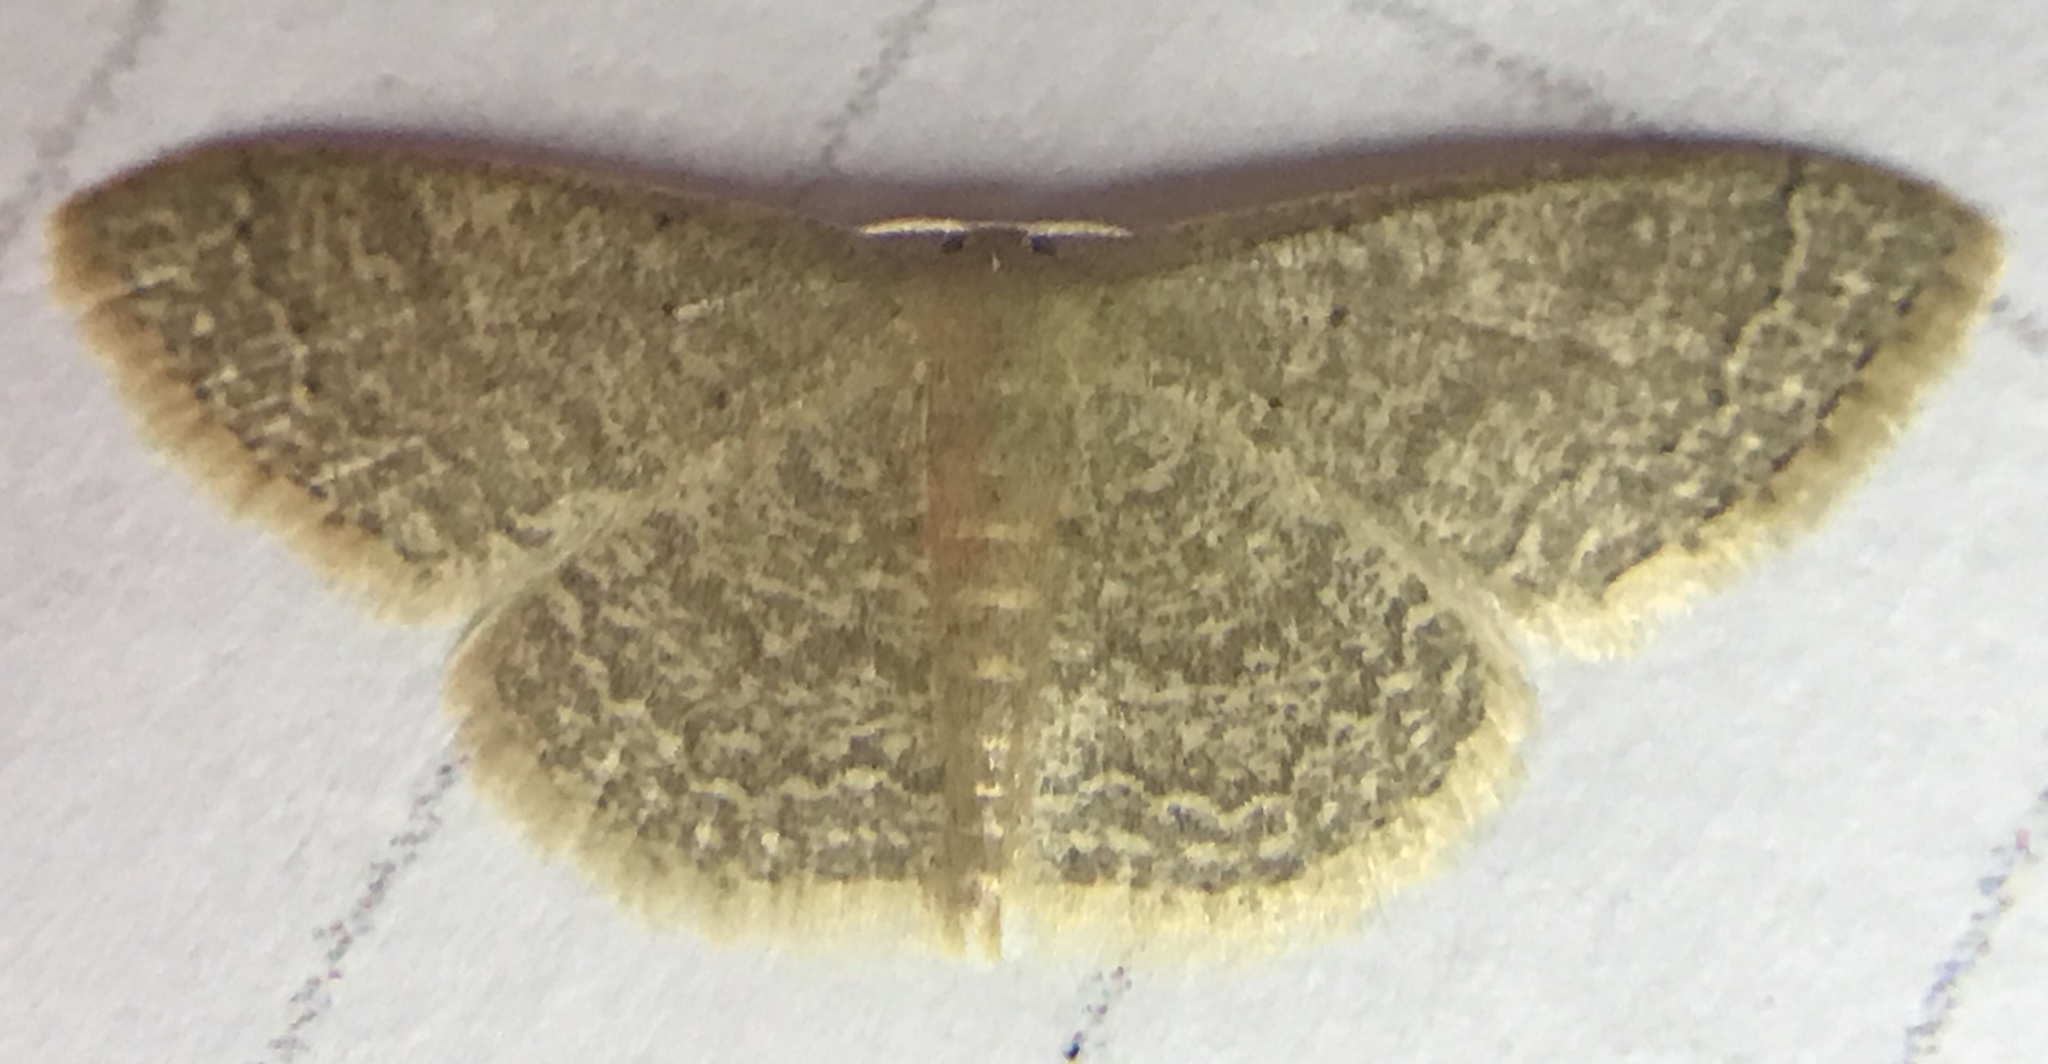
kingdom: Animalia
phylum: Arthropoda
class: Insecta
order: Lepidoptera
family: Geometridae
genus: Pleuroprucha
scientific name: Pleuroprucha insulsaria
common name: Common tan wave
